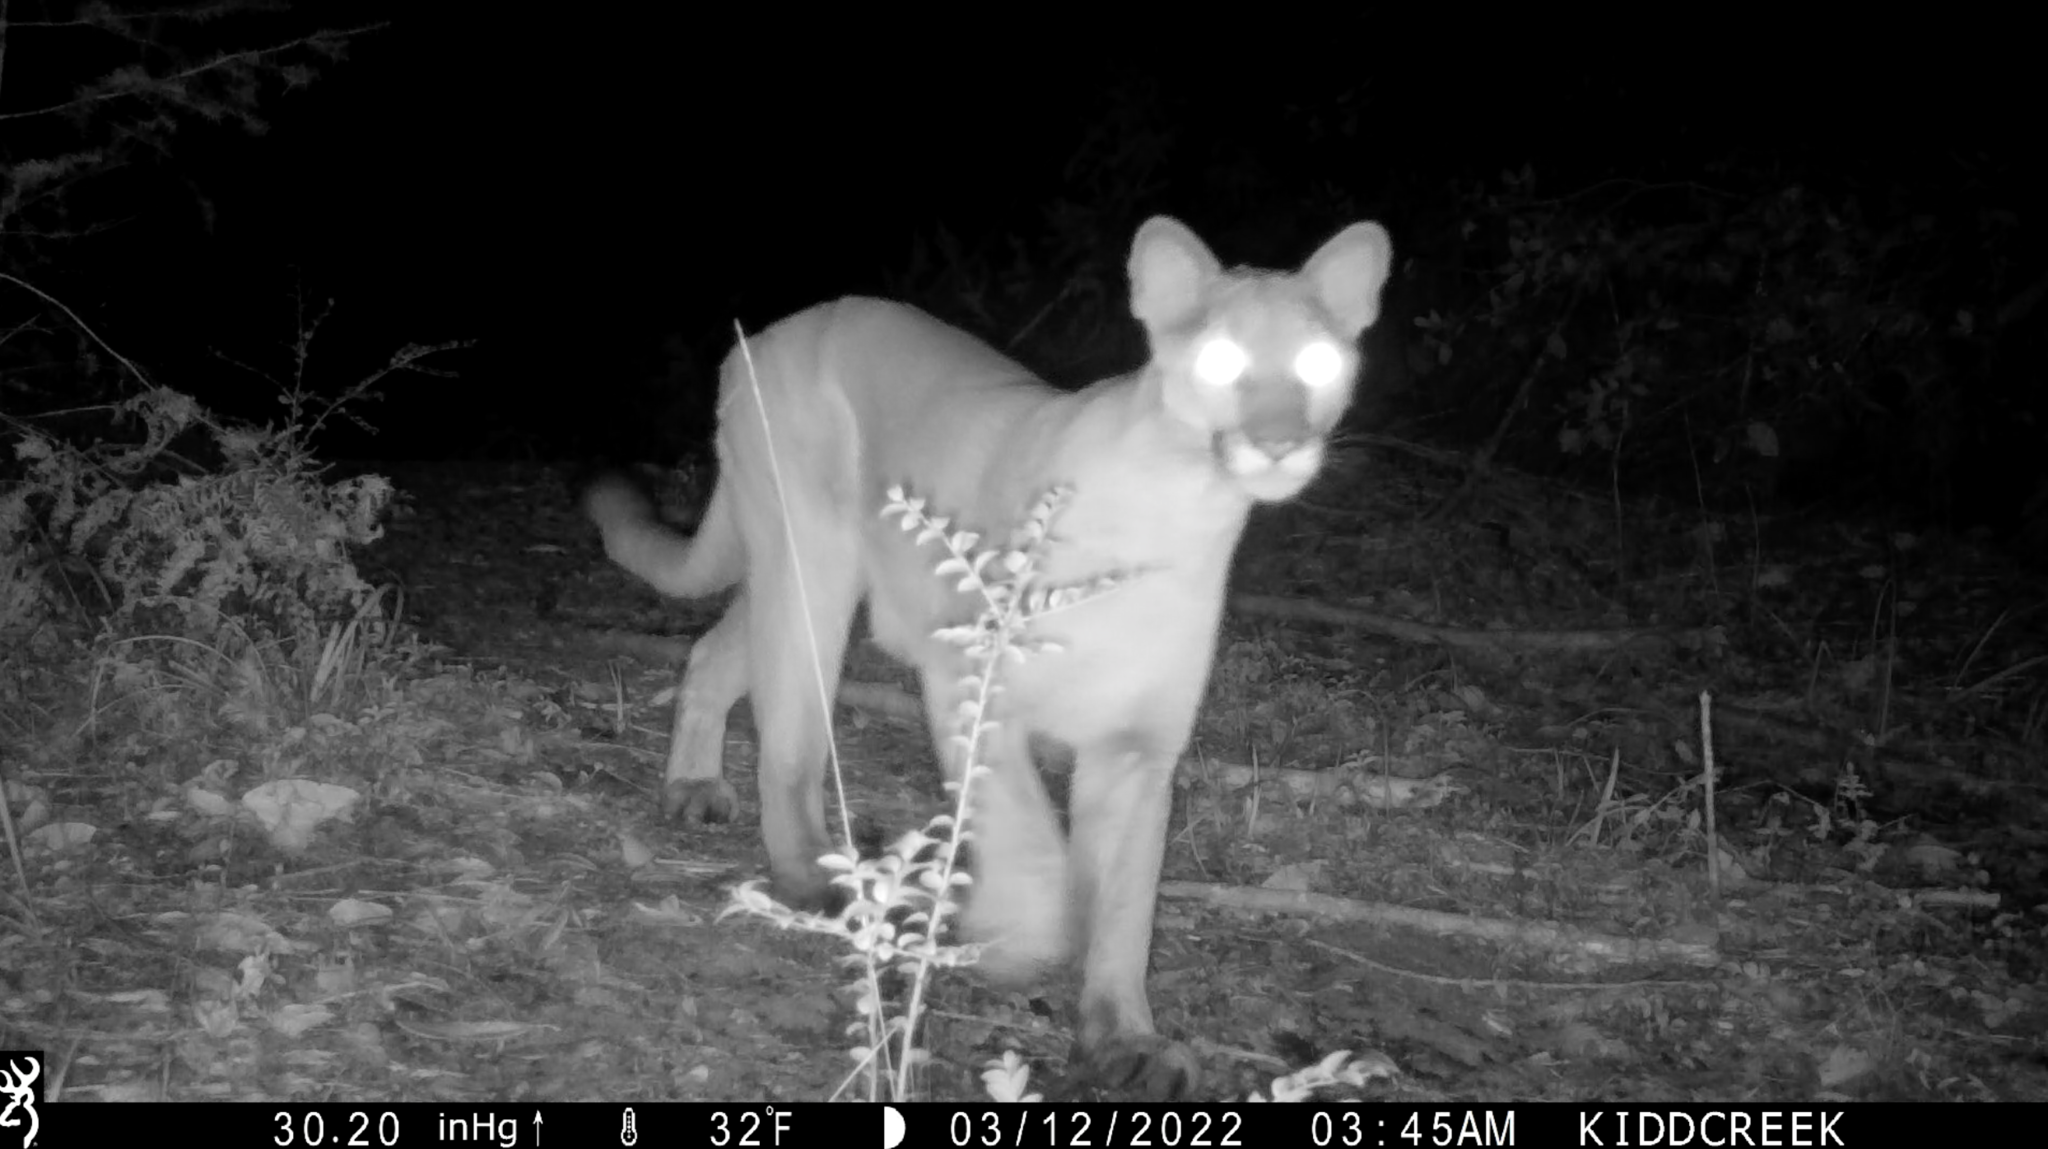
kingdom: Animalia
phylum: Chordata
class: Mammalia
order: Carnivora
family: Felidae
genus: Puma
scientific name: Puma concolor
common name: Puma
